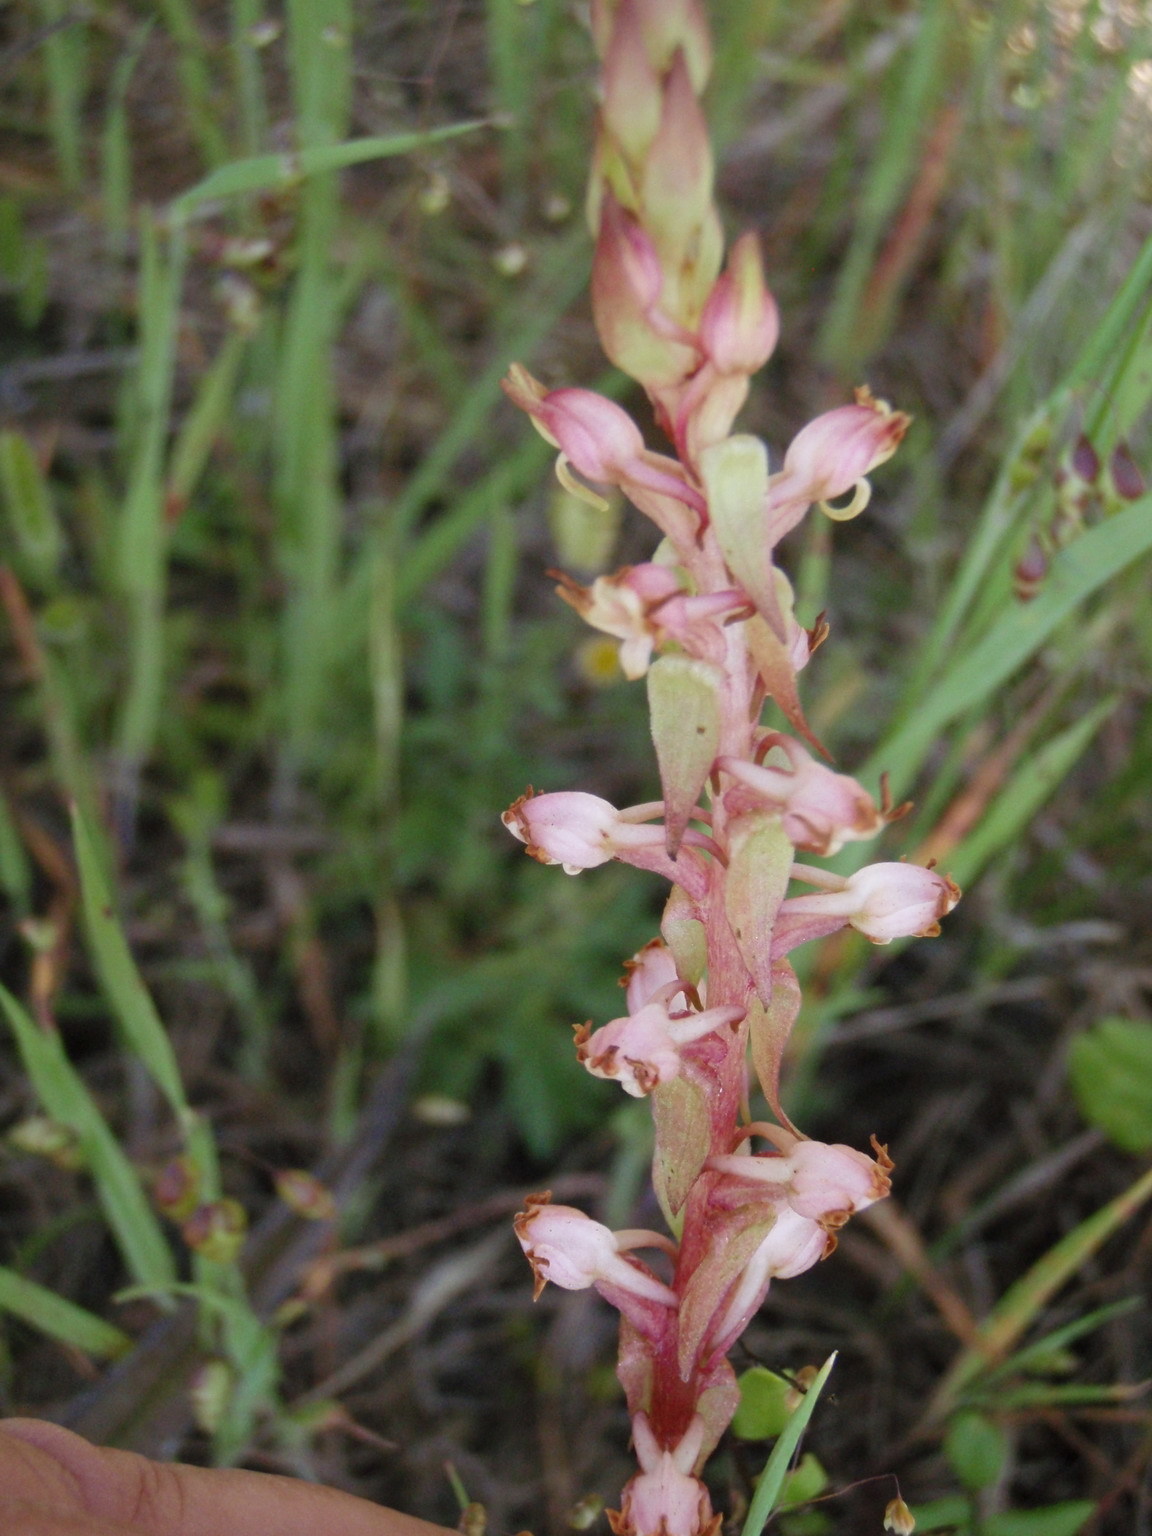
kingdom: Plantae
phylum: Tracheophyta
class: Liliopsida
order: Asparagales
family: Orchidaceae
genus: Satyrium
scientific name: Satyrium ligulatum
